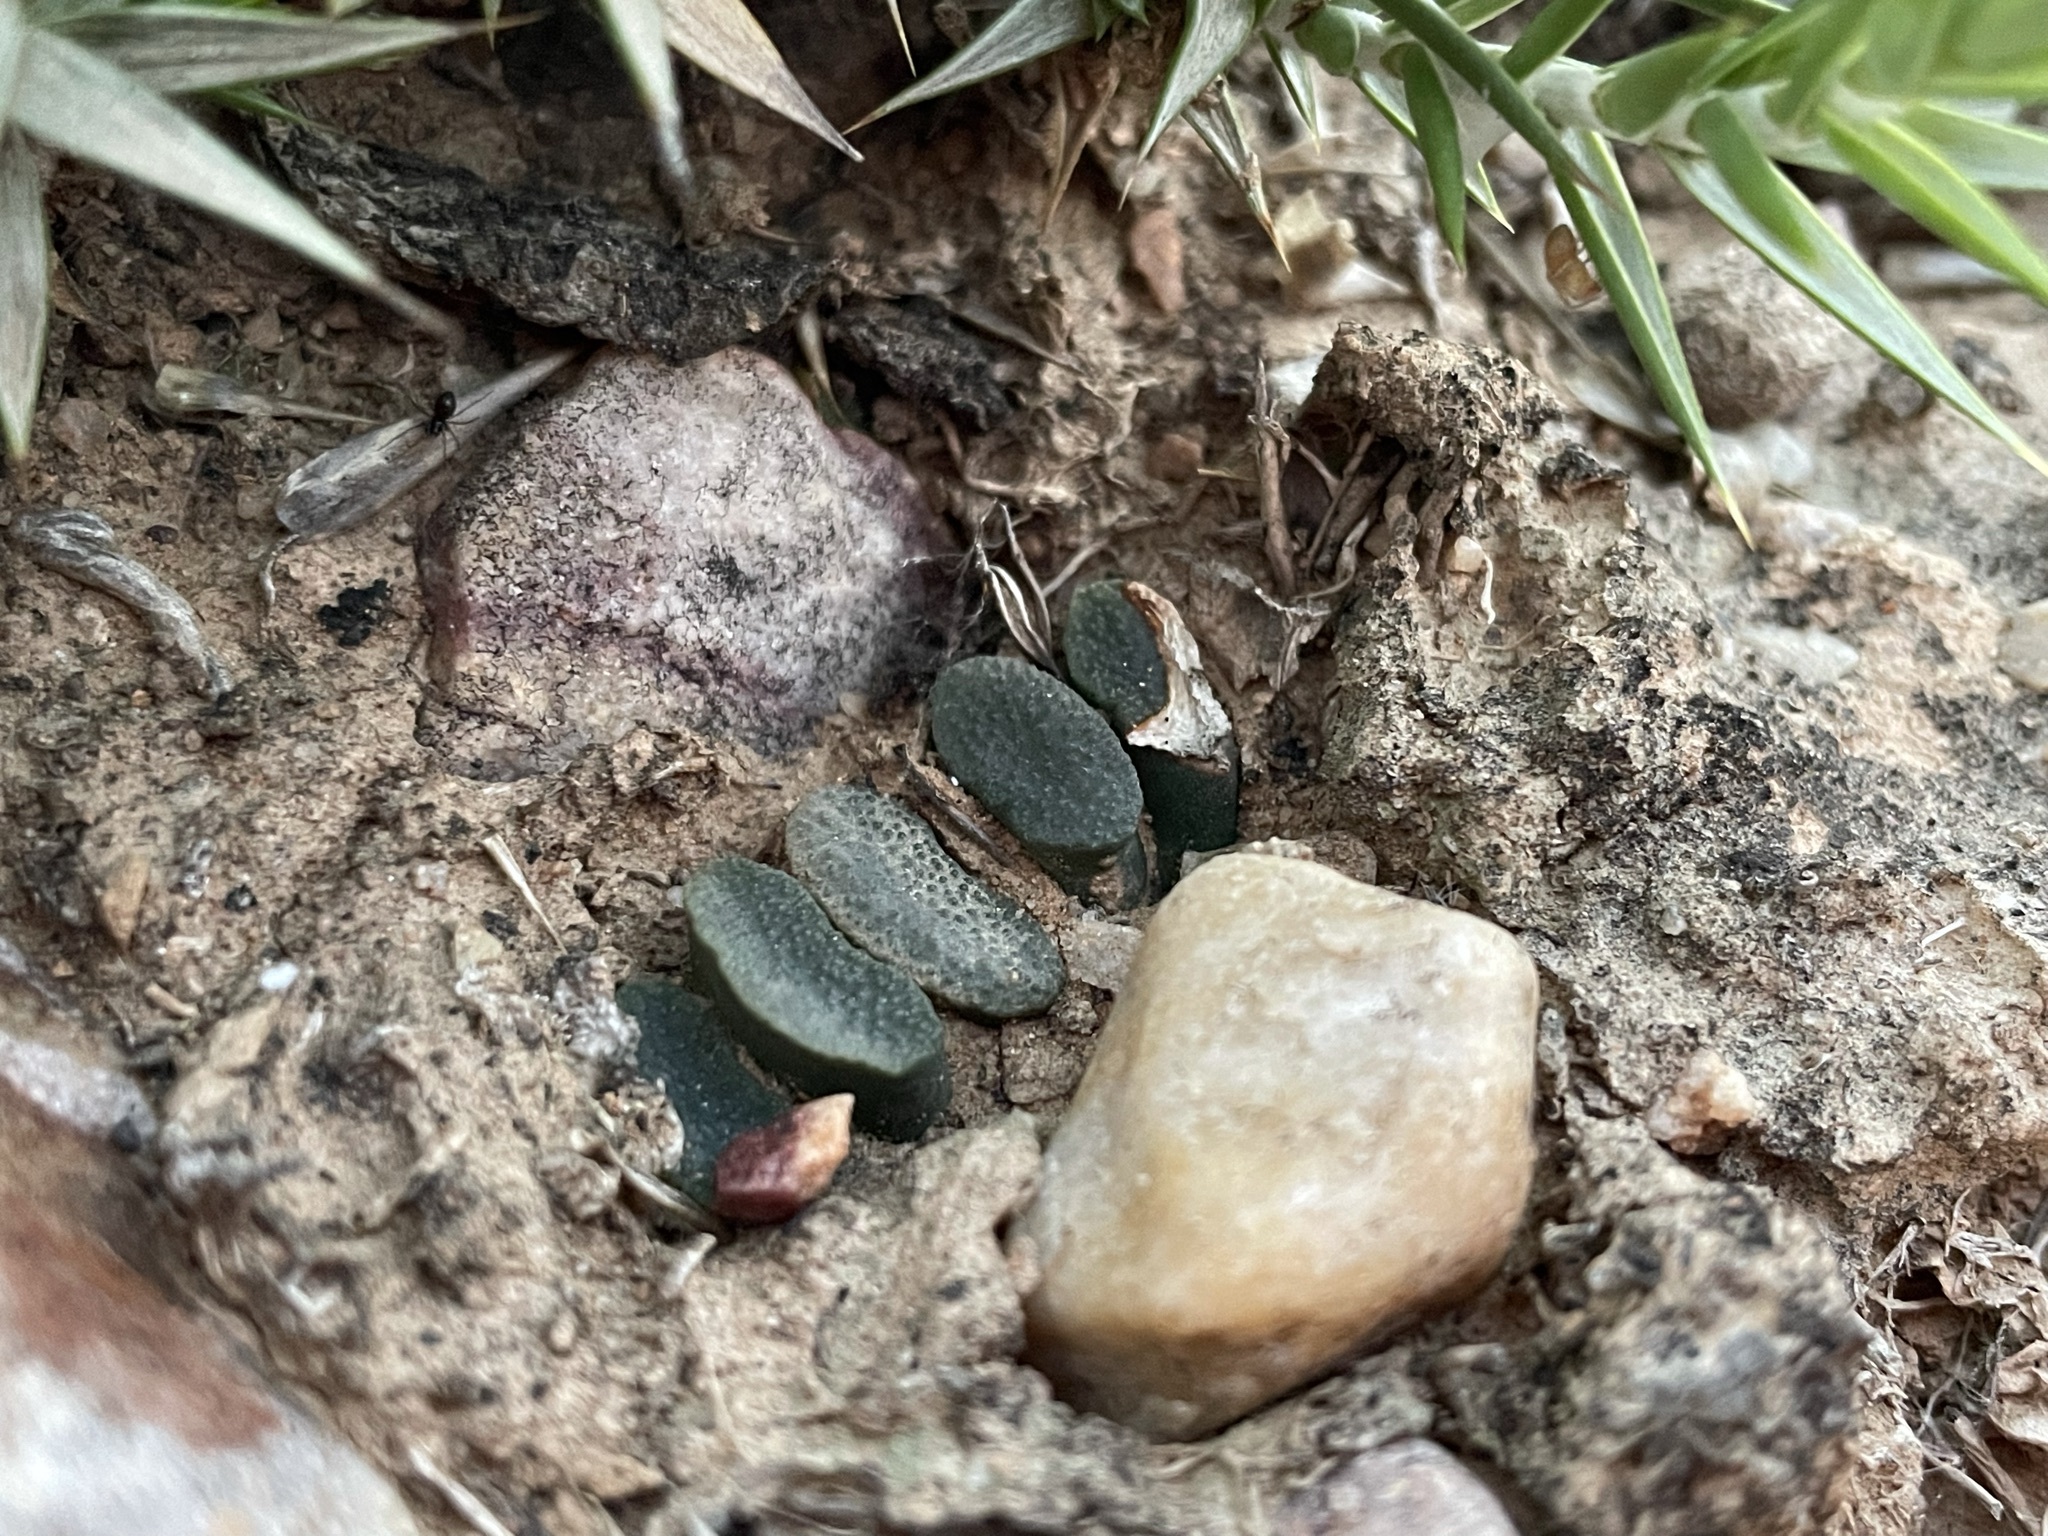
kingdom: Plantae
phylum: Tracheophyta
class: Liliopsida
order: Asparagales
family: Asphodelaceae
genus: Haworthia
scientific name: Haworthia truncata
